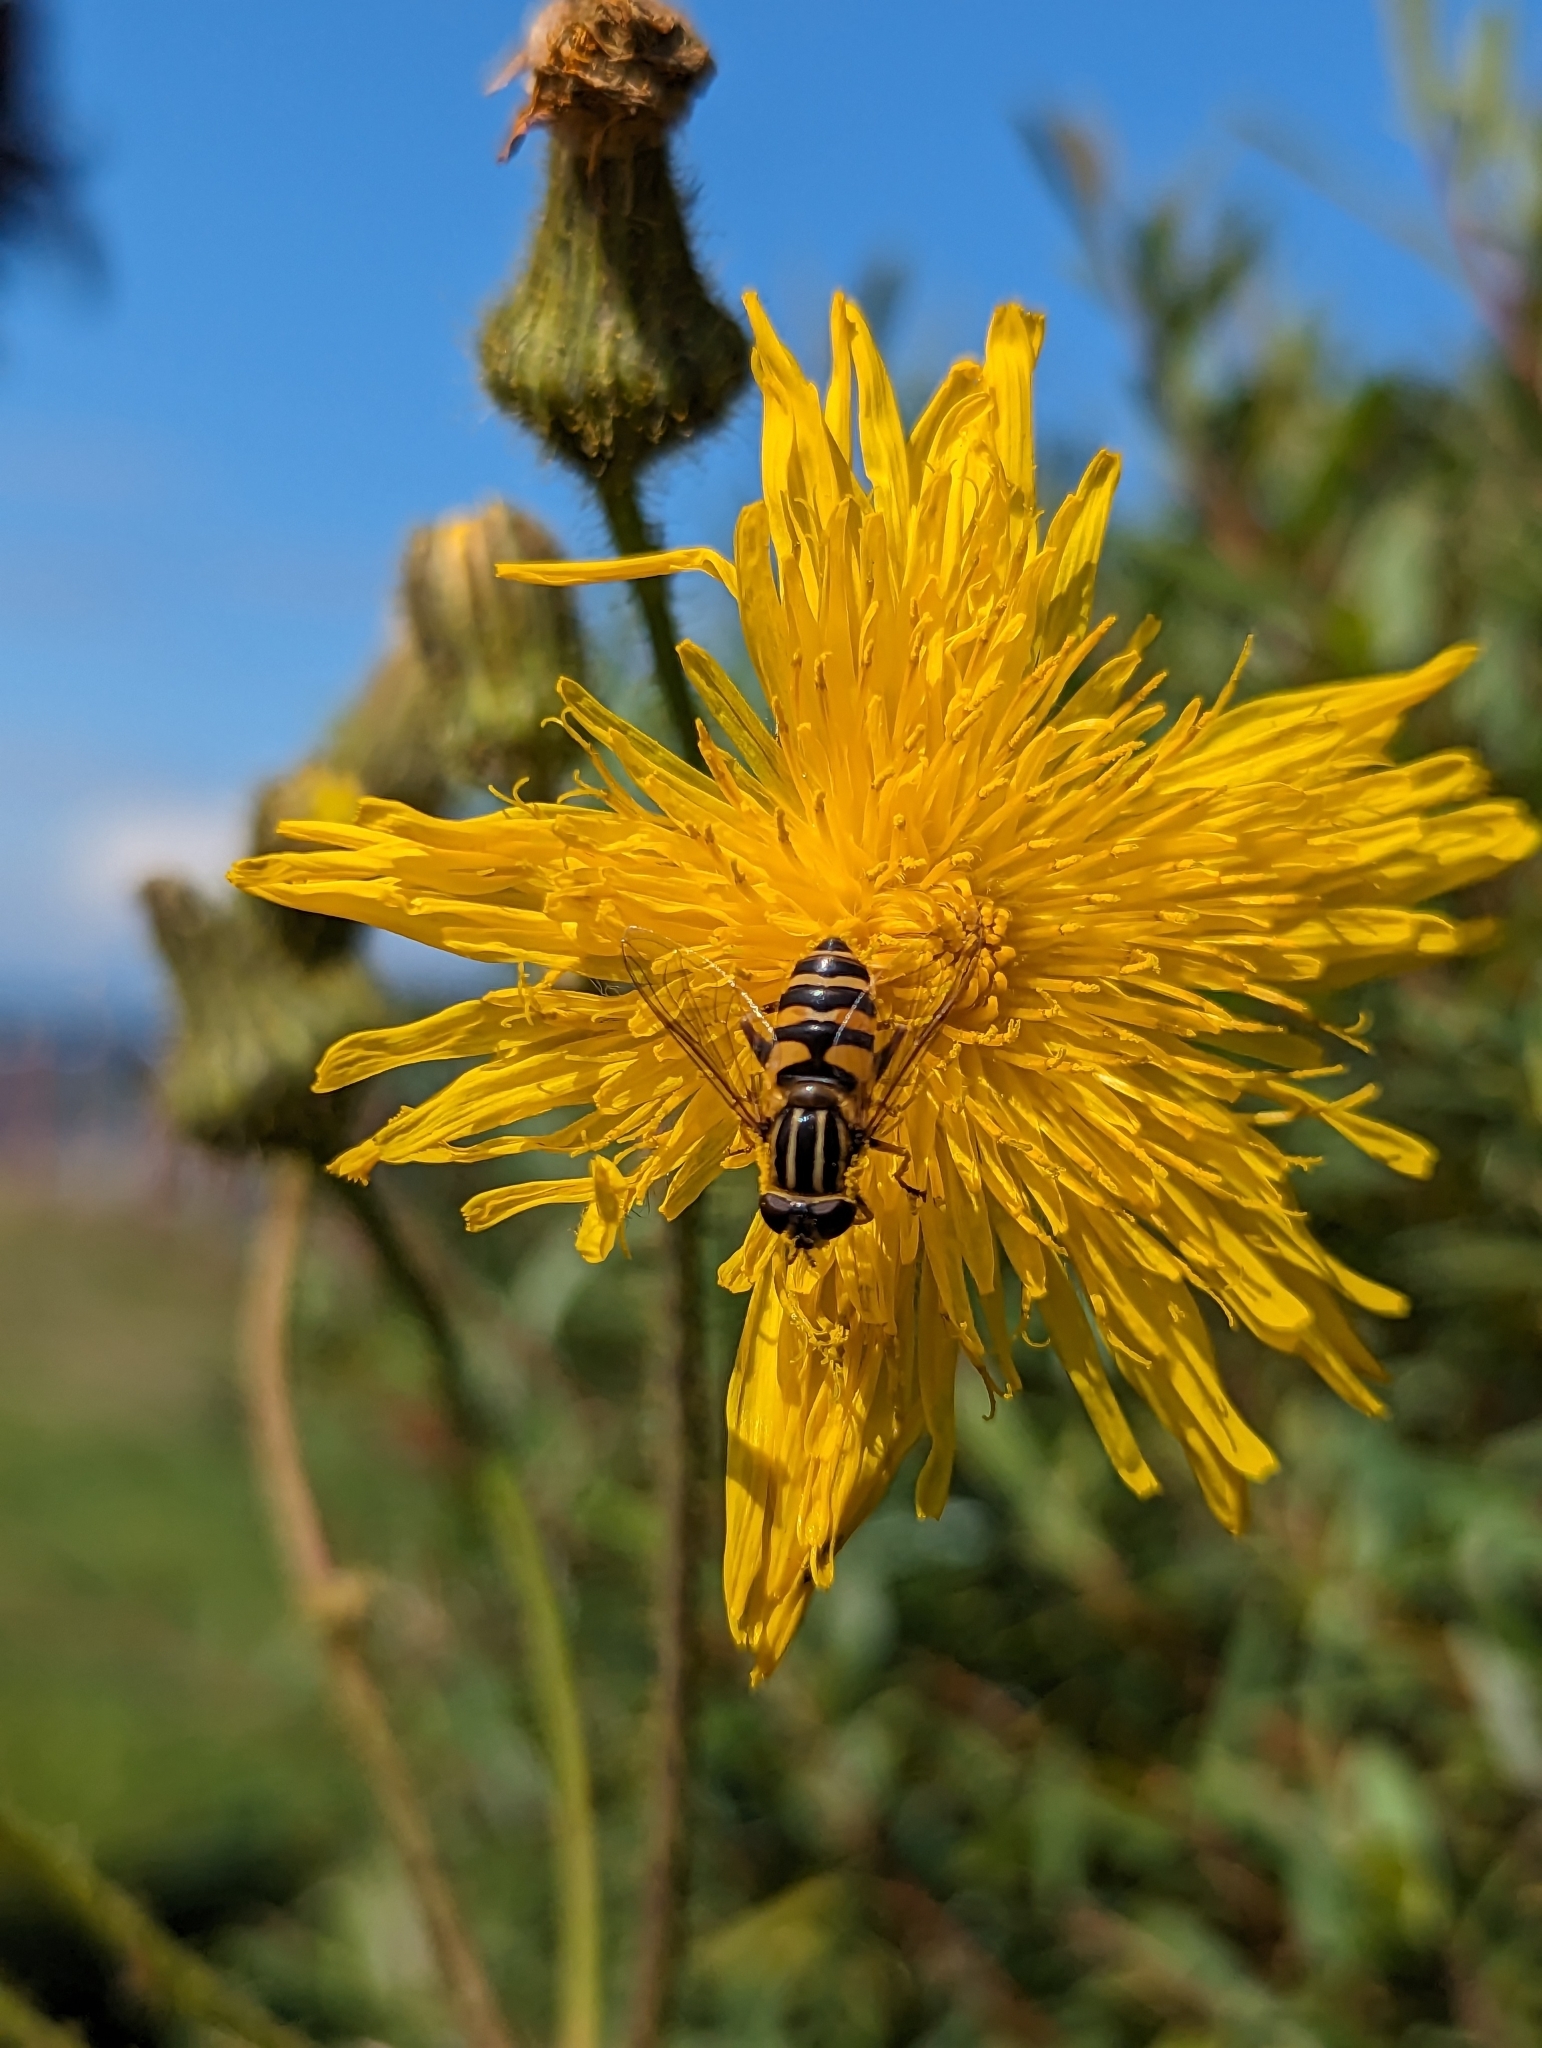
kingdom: Animalia
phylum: Arthropoda
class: Insecta
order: Diptera
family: Syrphidae
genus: Helophilus
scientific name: Helophilus fasciatus
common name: Narrow-headed marsh fly
